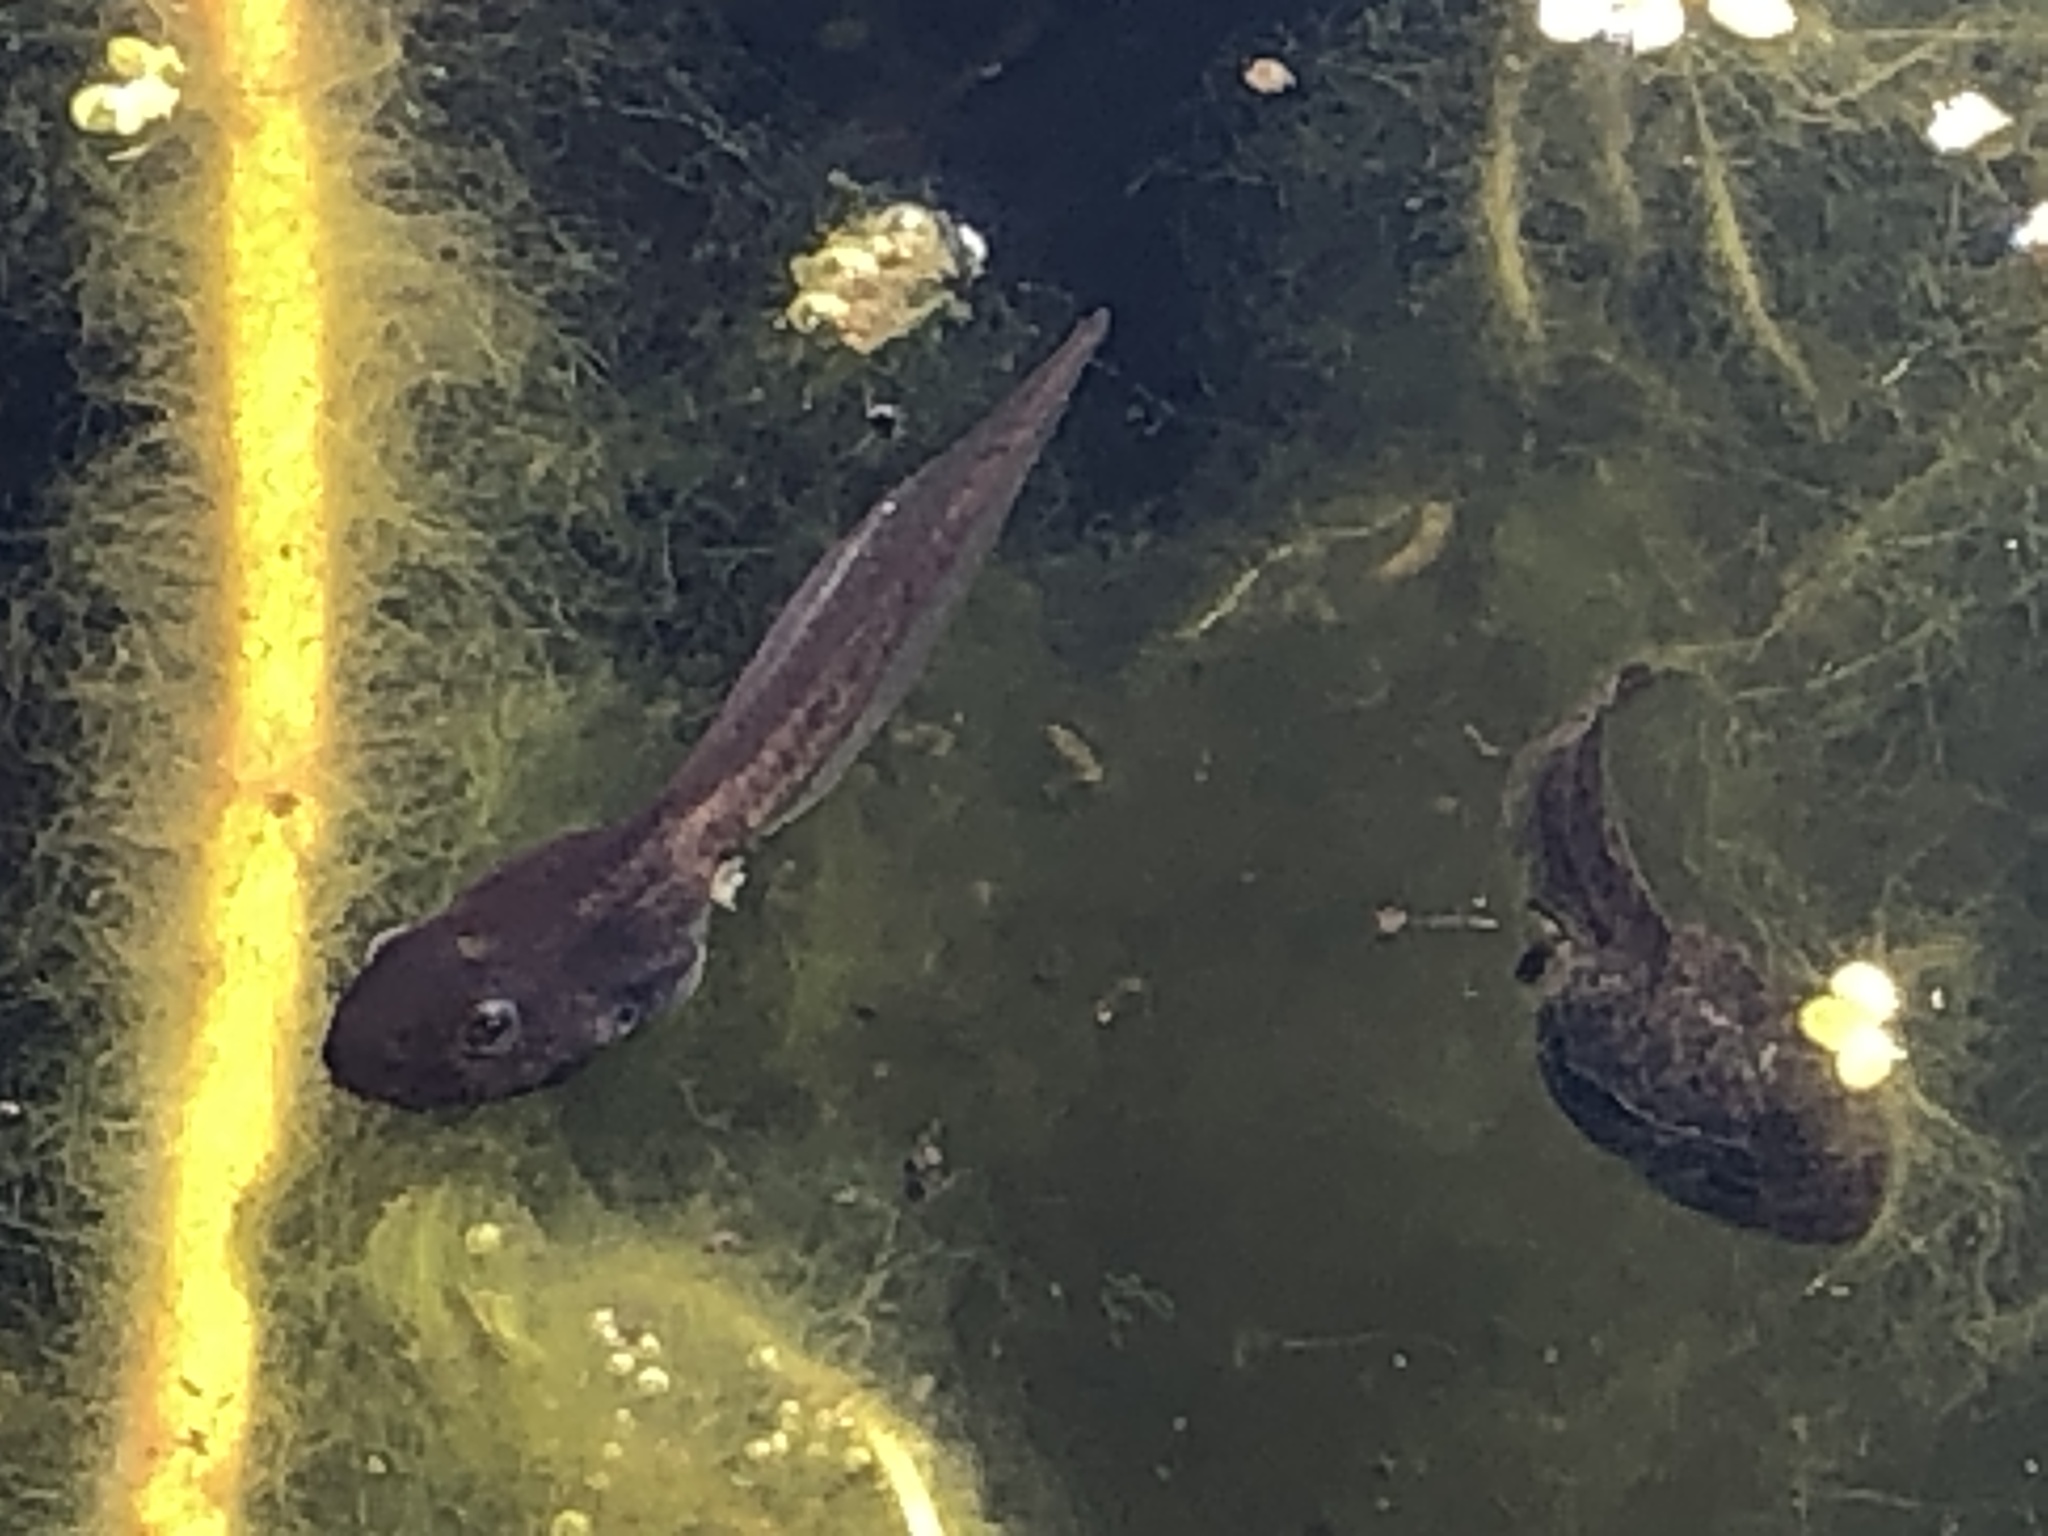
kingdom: Animalia
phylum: Chordata
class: Amphibia
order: Anura
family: Ranidae
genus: Lithobates
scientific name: Lithobates sylvaticus
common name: Wood frog
